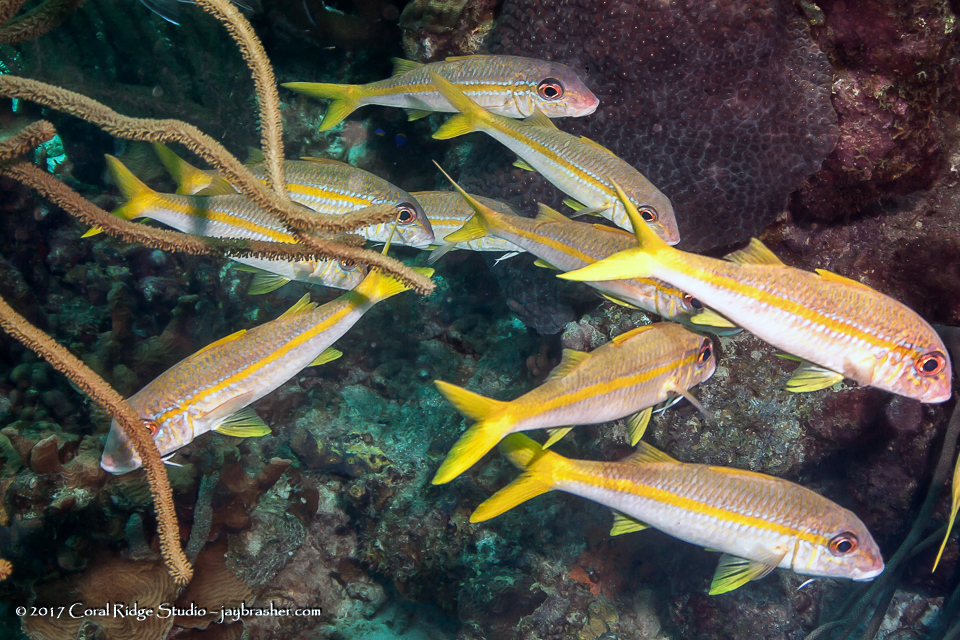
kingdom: Animalia
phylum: Chordata
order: Perciformes
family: Mullidae
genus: Mulloidichthys
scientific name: Mulloidichthys martinicus
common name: Yellow goatfish
